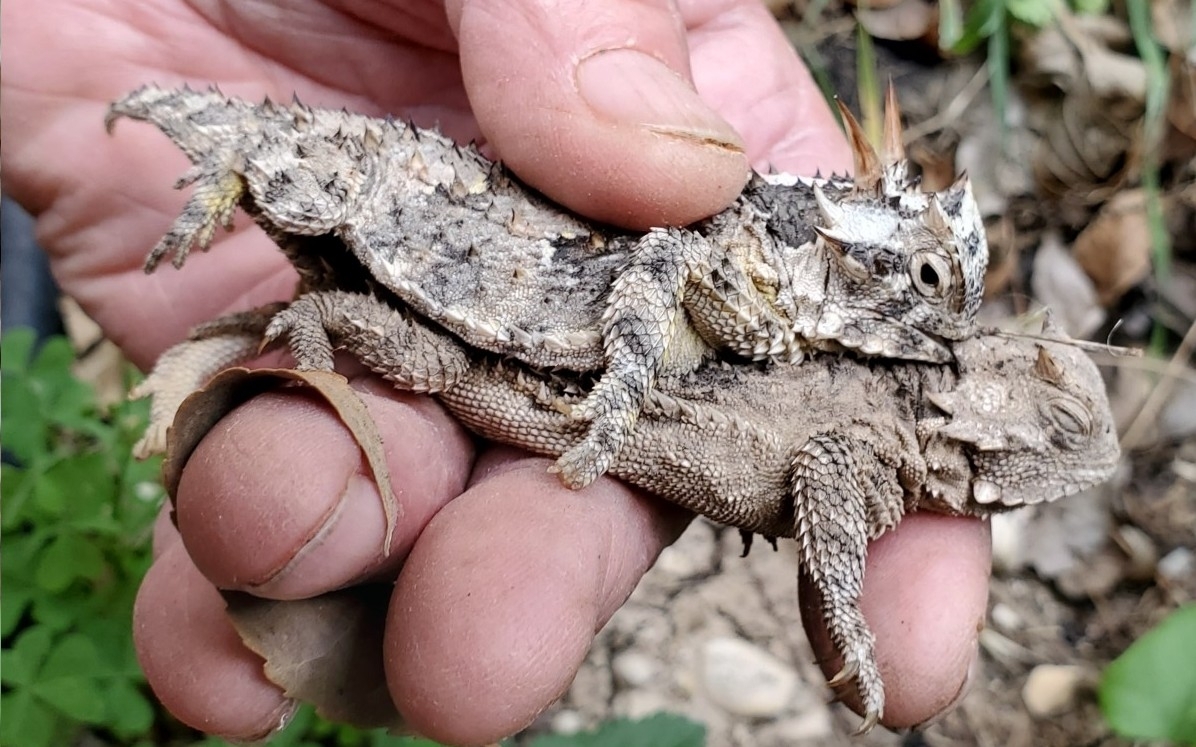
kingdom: Animalia
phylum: Chordata
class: Squamata
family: Phrynosomatidae
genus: Phrynosoma
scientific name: Phrynosoma cornutum
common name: Texas horned lizard
